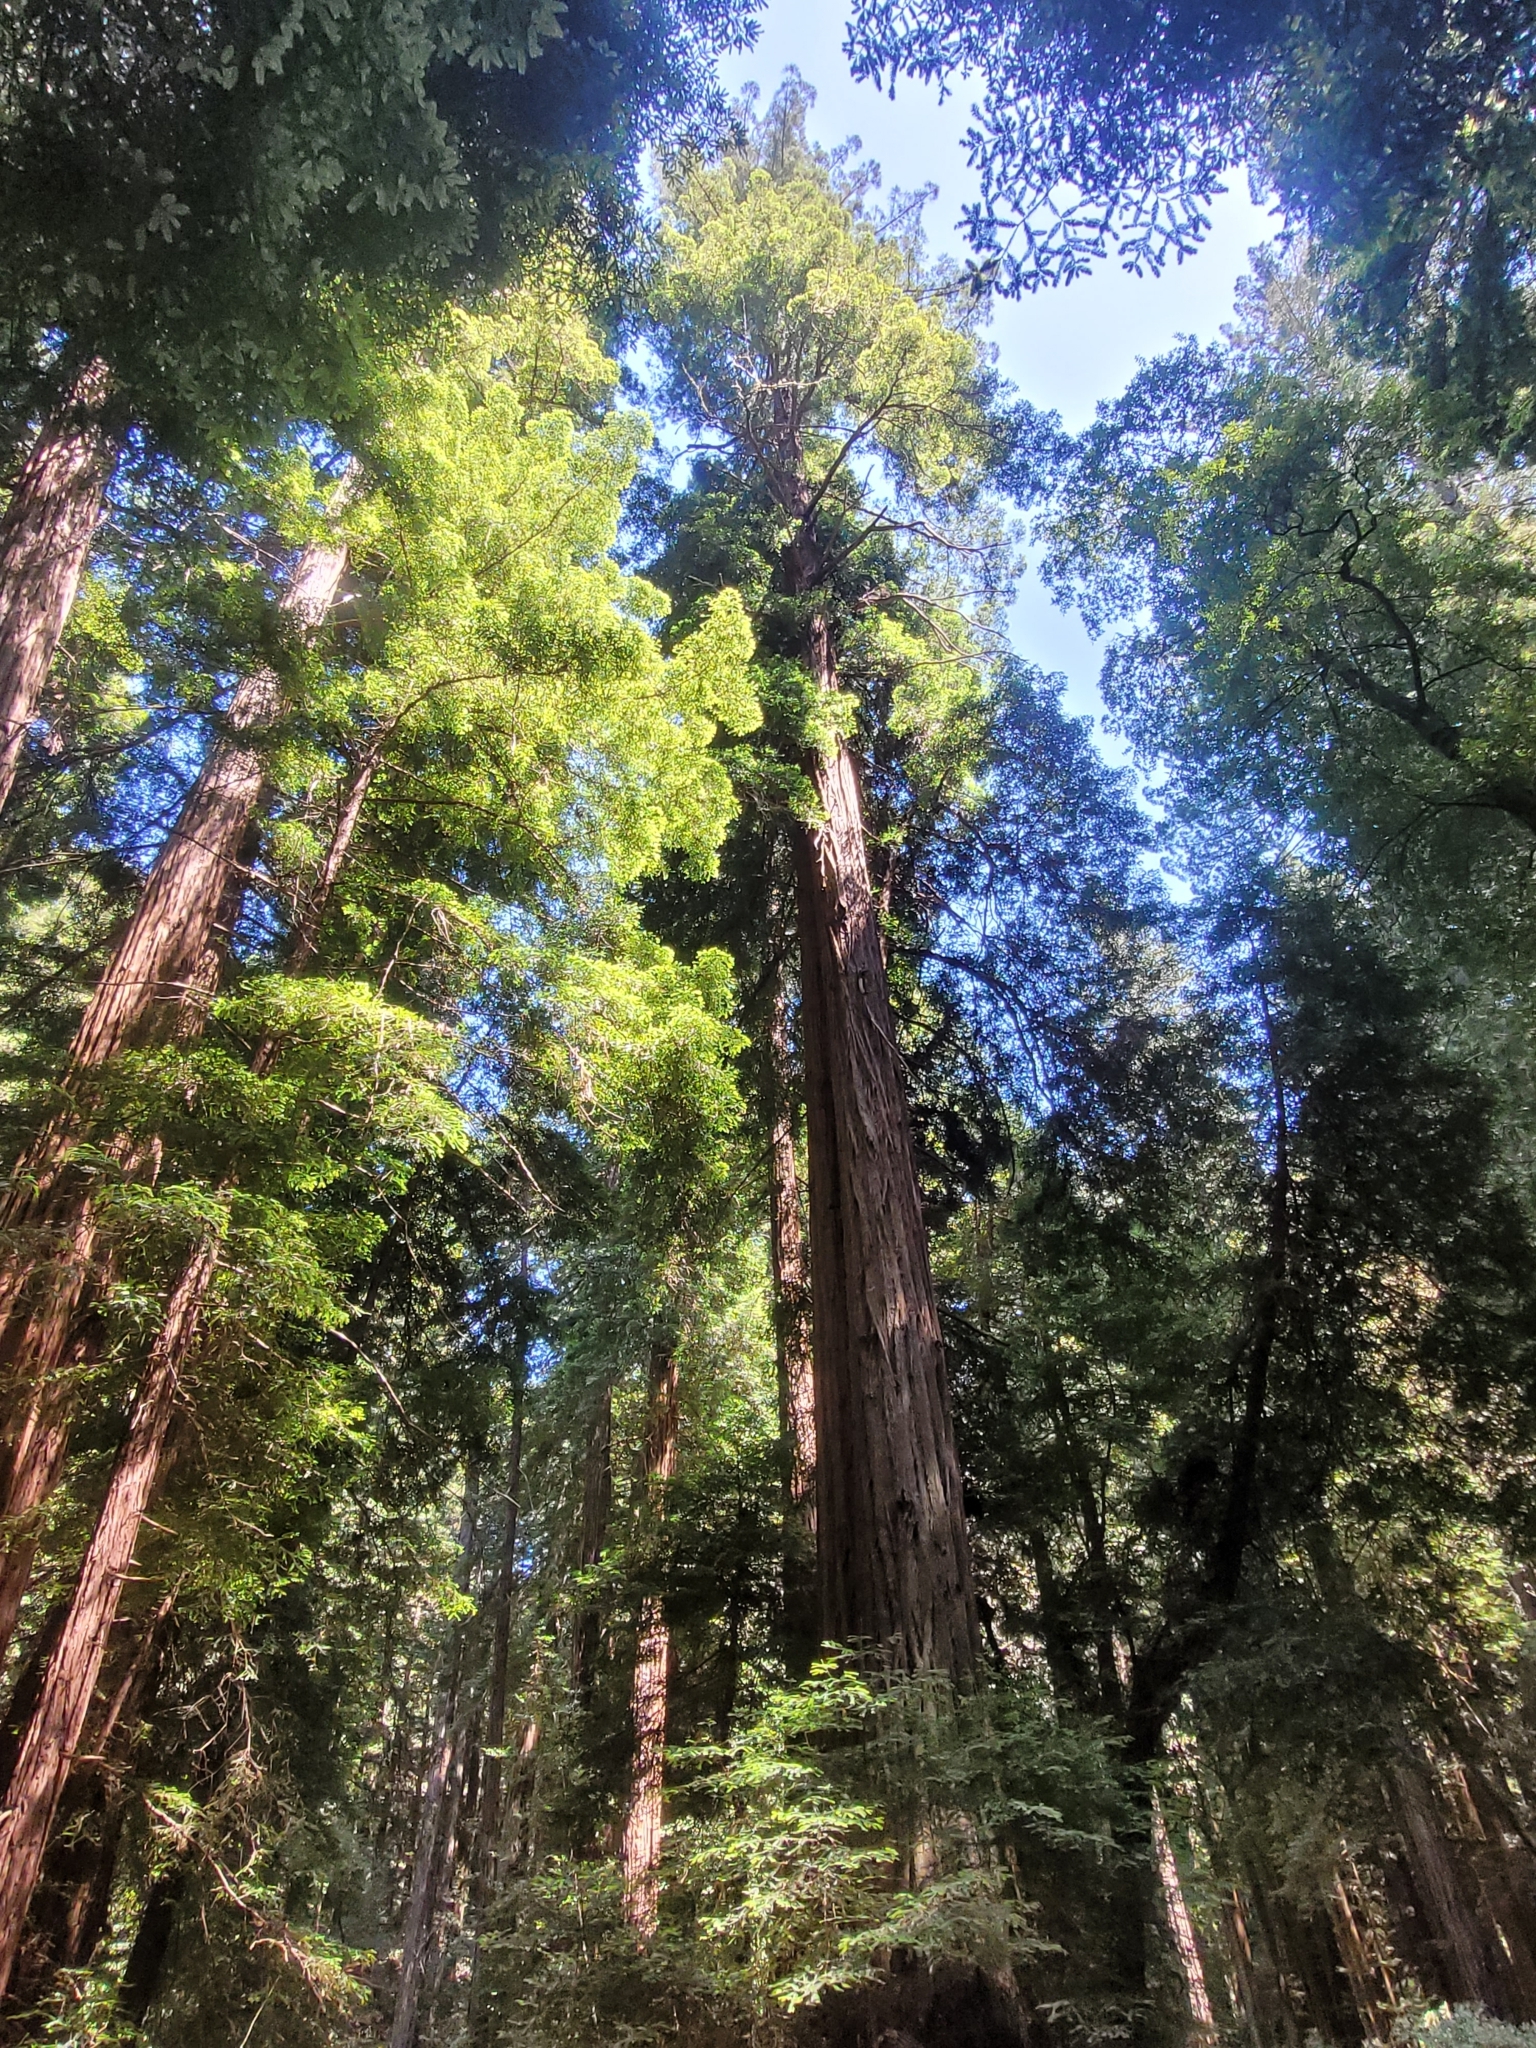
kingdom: Plantae
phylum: Tracheophyta
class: Pinopsida
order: Pinales
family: Cupressaceae
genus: Sequoia
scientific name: Sequoia sempervirens
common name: Coast redwood
